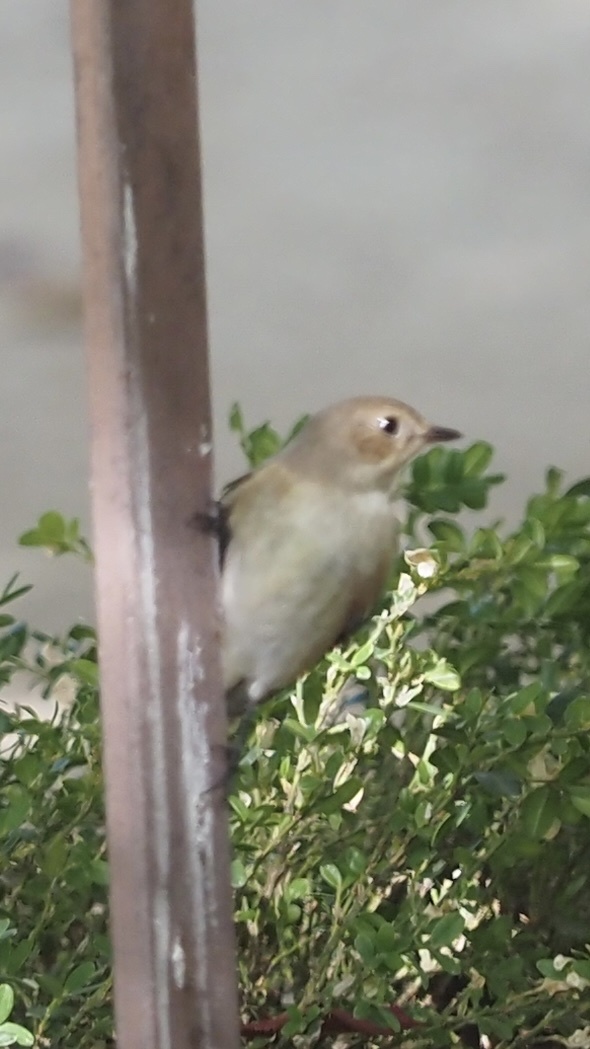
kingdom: Animalia
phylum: Chordata
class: Aves
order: Passeriformes
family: Muscicapidae
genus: Ficedula
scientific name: Ficedula hypoleuca
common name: European pied flycatcher
